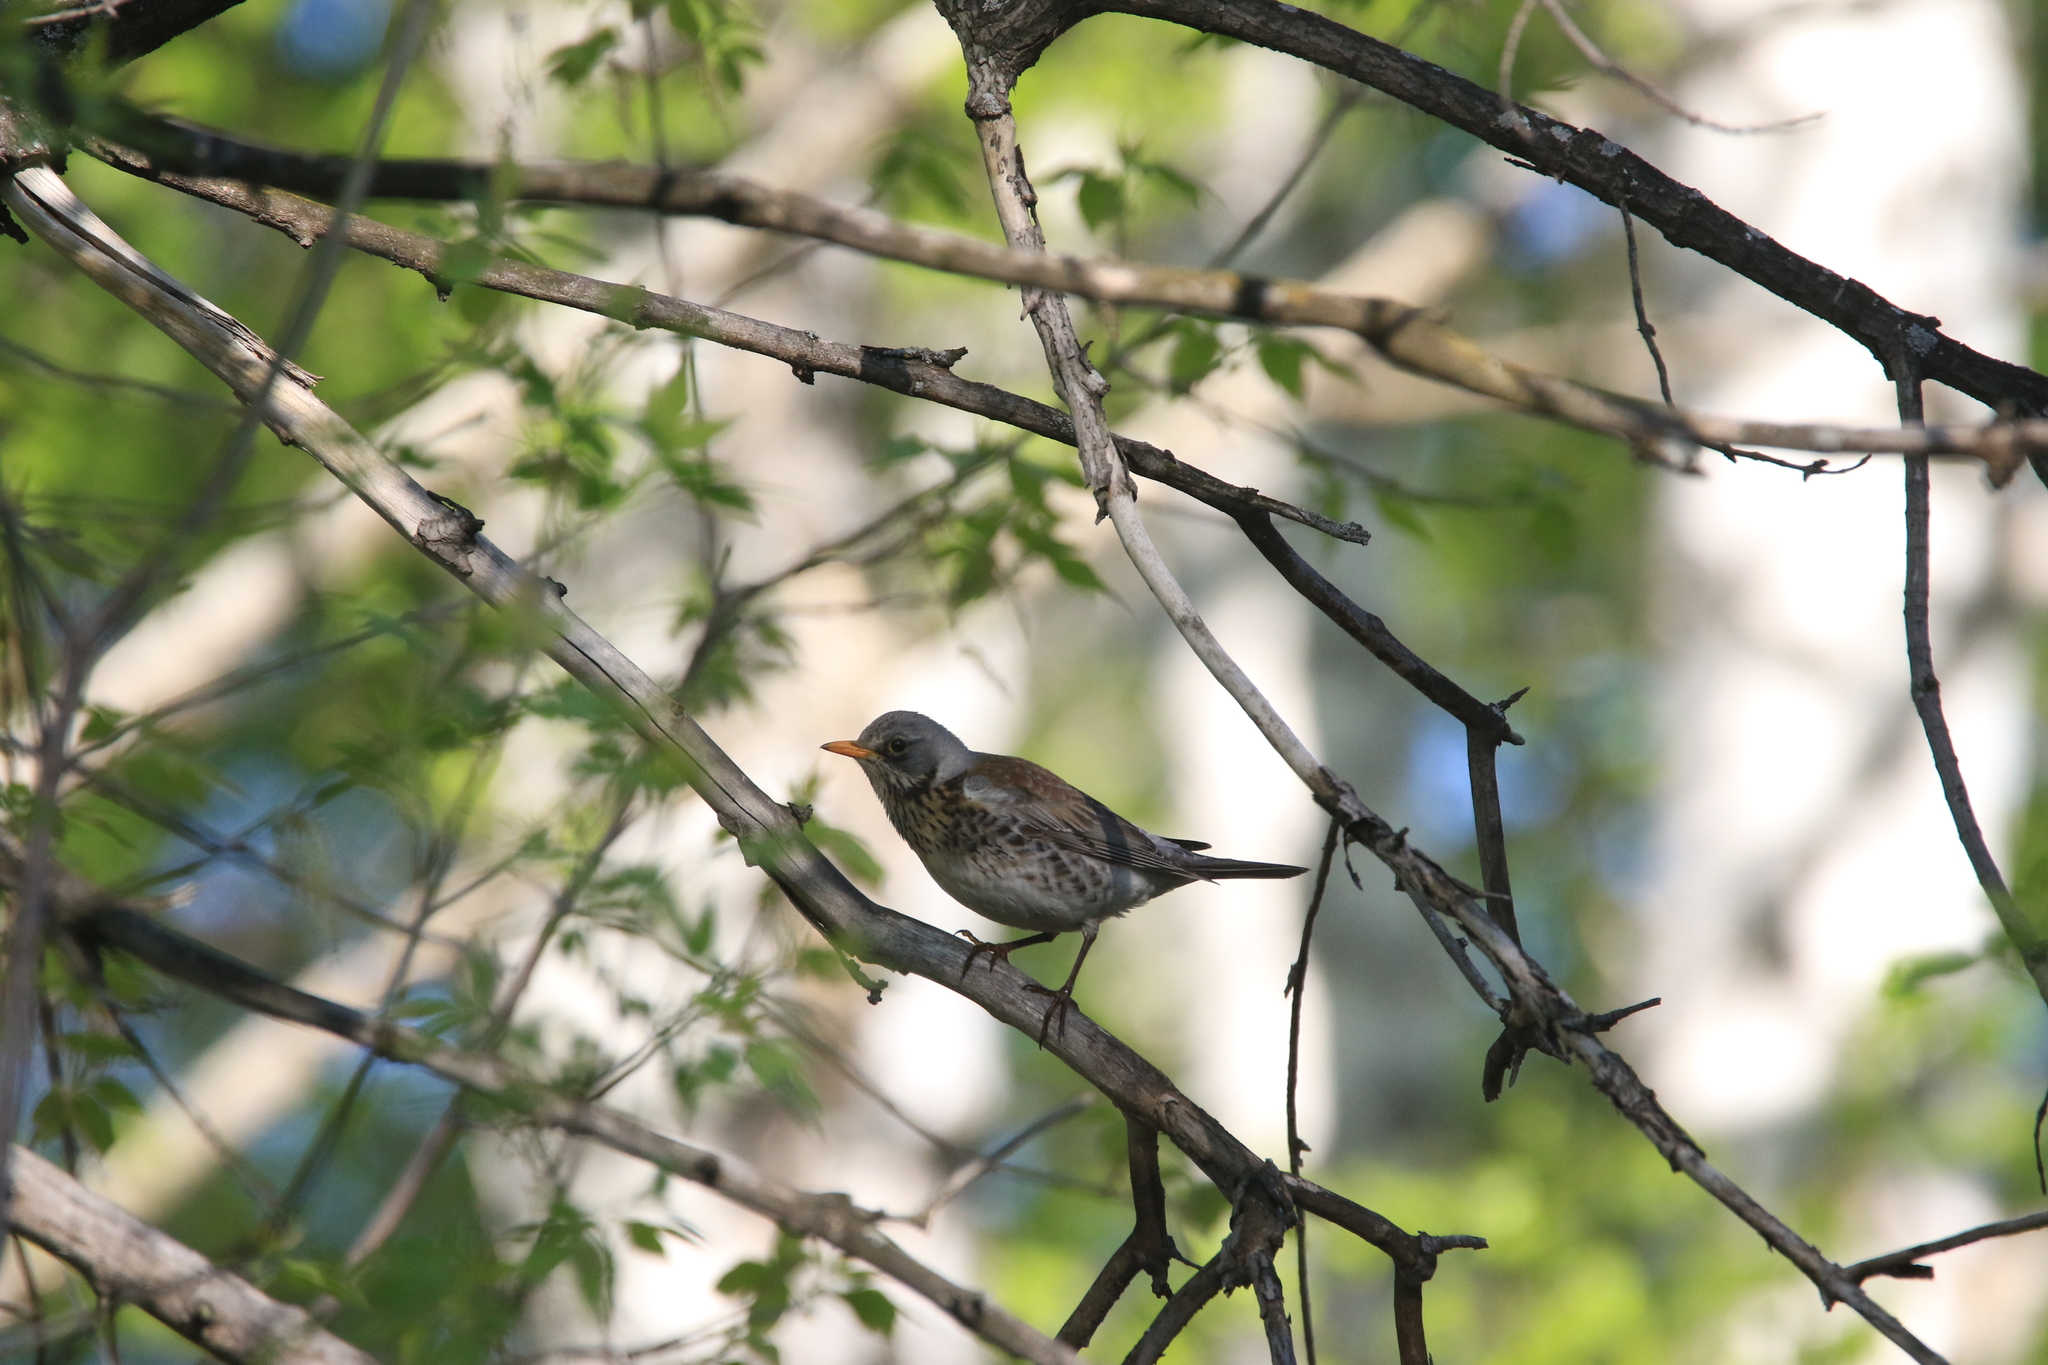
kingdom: Animalia
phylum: Chordata
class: Aves
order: Passeriformes
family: Turdidae
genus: Turdus
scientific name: Turdus pilaris
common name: Fieldfare
